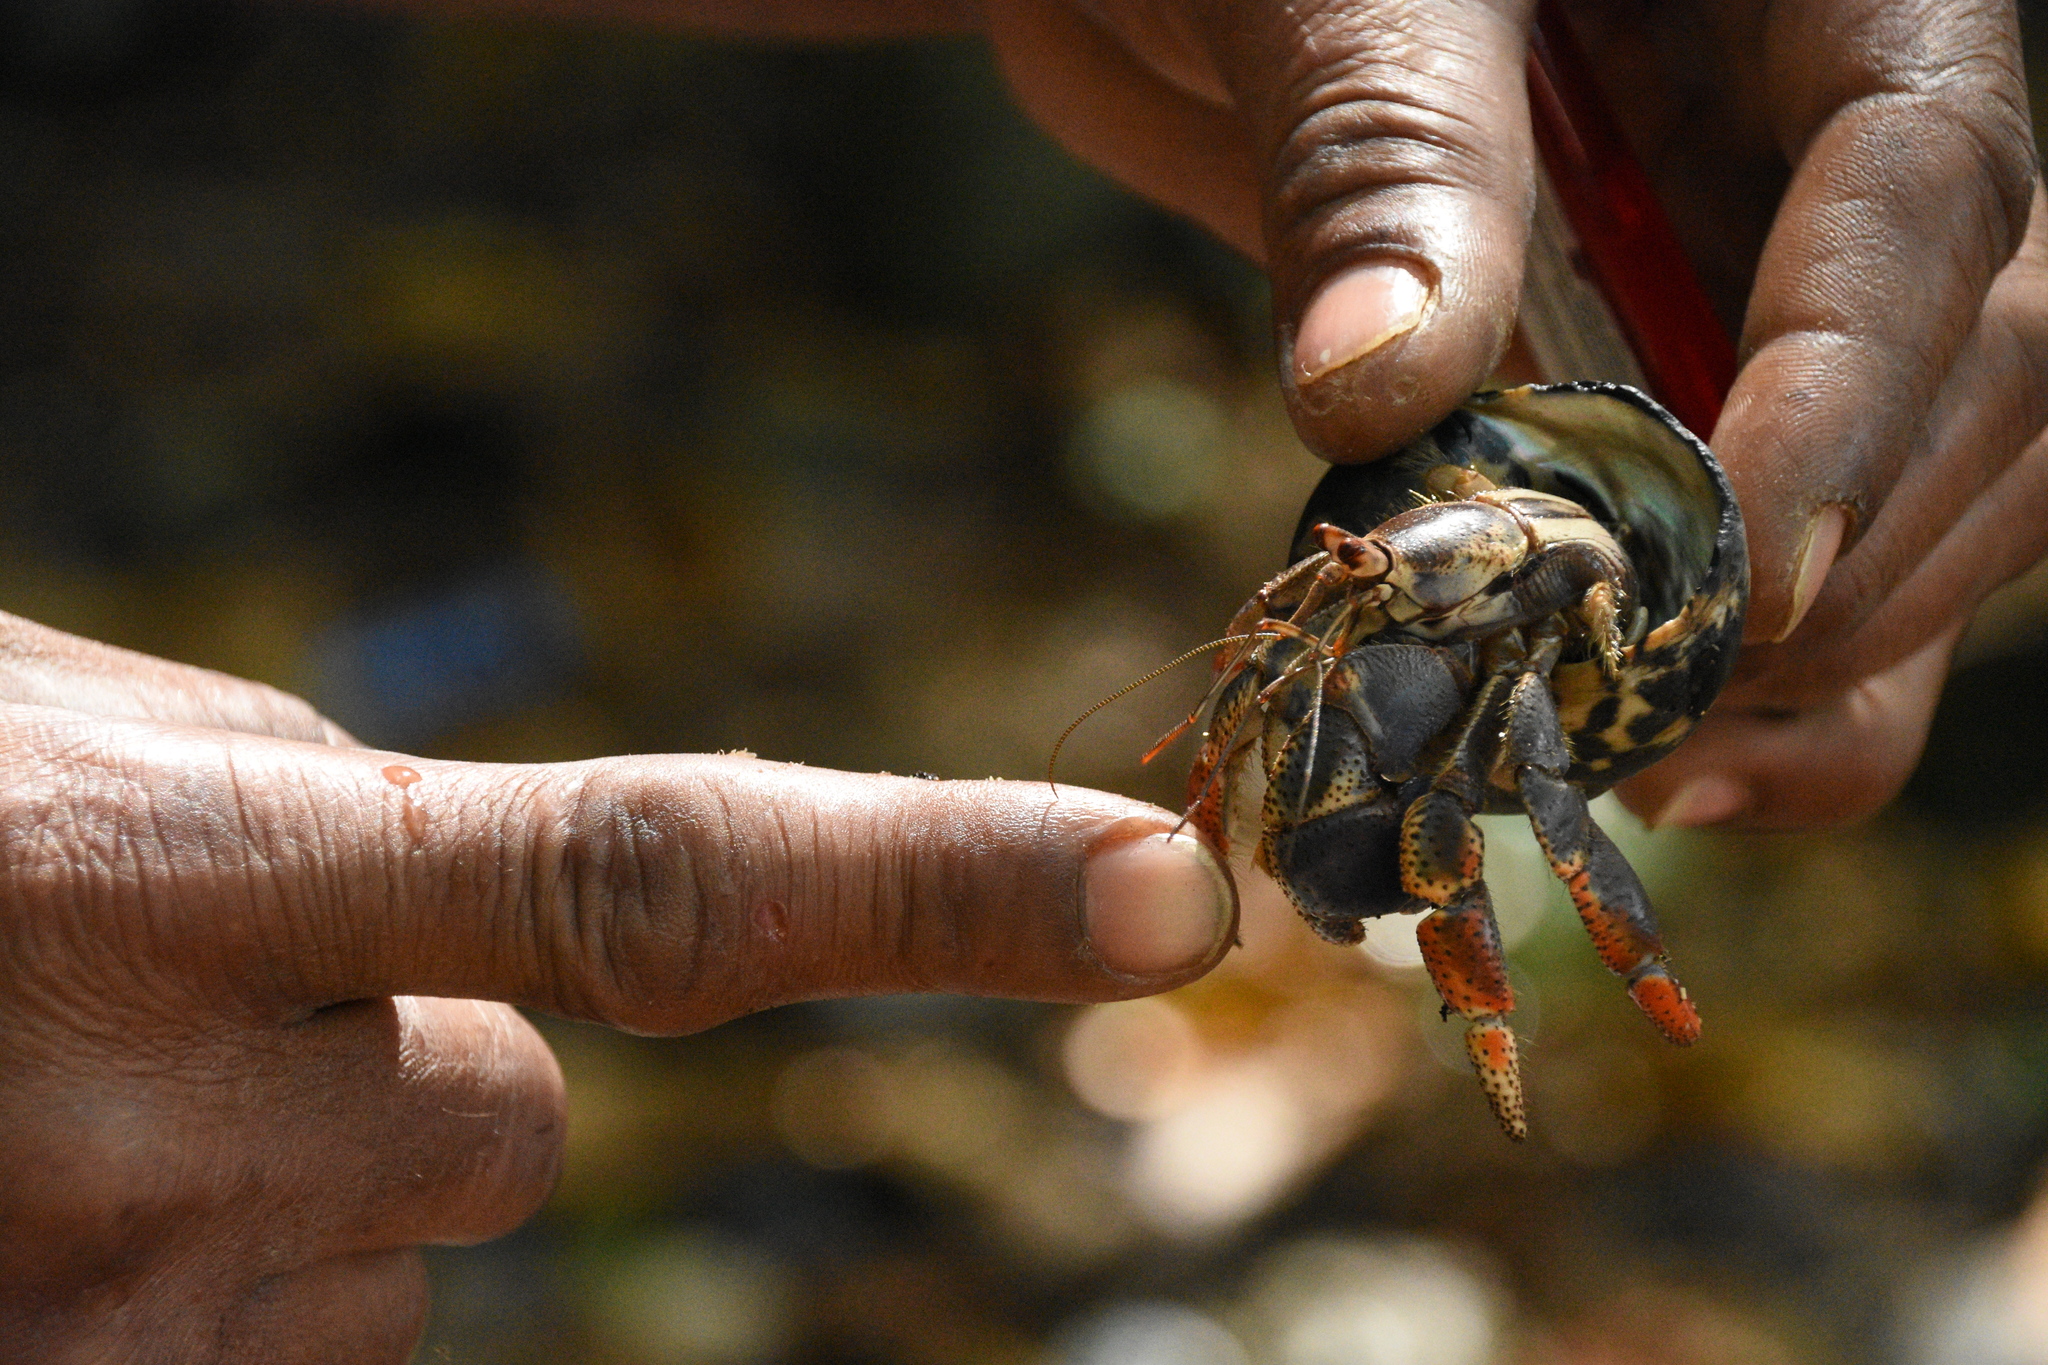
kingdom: Animalia
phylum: Arthropoda
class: Malacostraca
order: Decapoda
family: Coenobitidae
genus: Coenobita
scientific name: Coenobita clypeatus
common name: Caribbean hermit crab
